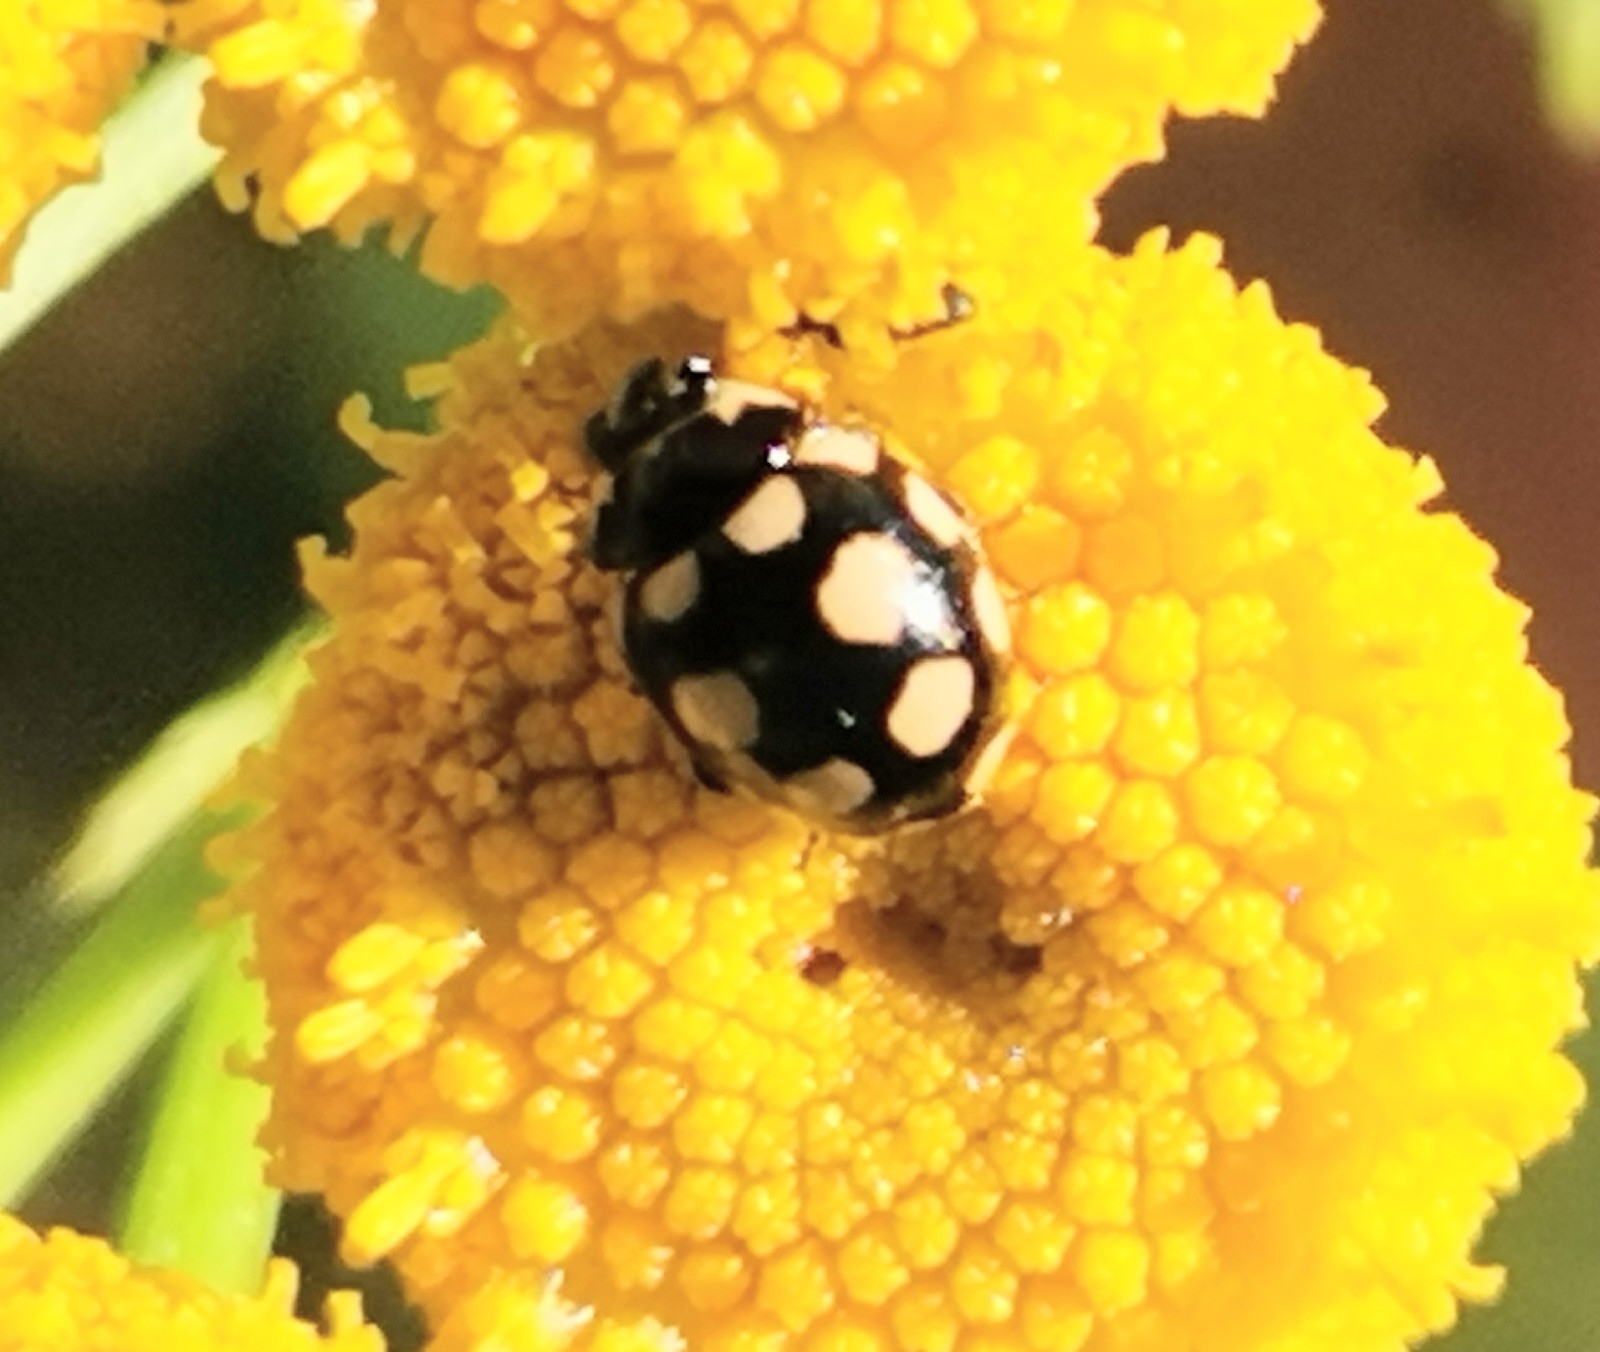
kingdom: Animalia
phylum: Arthropoda
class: Insecta
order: Coleoptera
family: Coccinellidae
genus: Coccinula
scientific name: Coccinula quatuordecimpustulata
